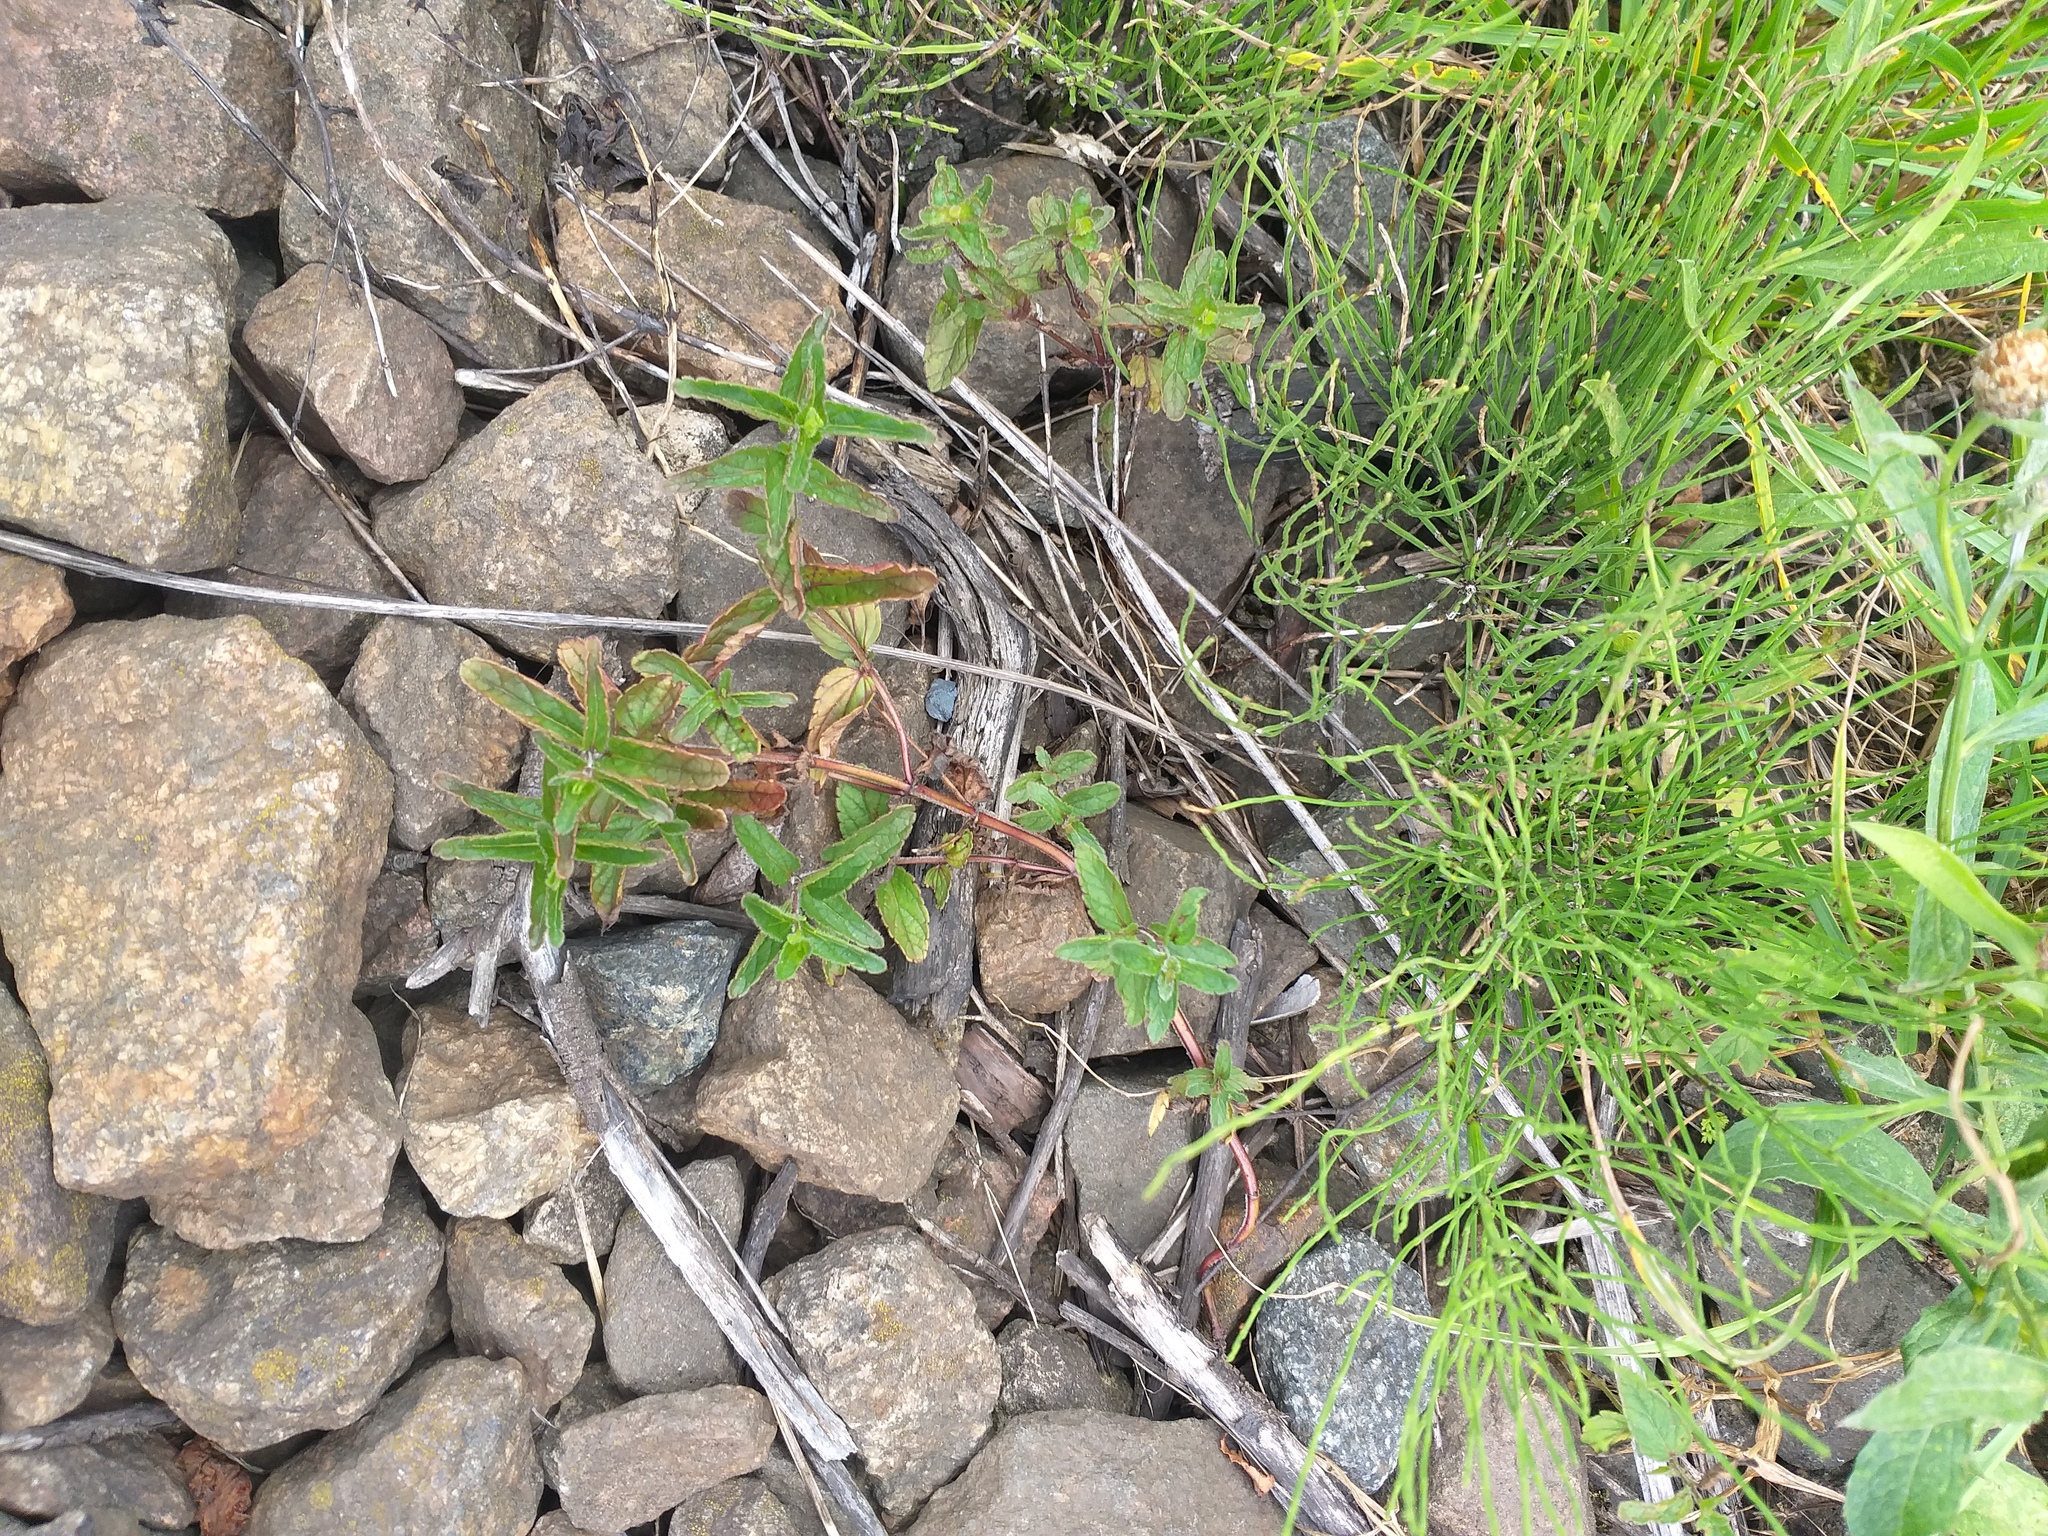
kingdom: Plantae
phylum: Tracheophyta
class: Magnoliopsida
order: Lamiales
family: Plantaginaceae
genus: Veronica
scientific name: Veronica chamaedrys
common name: Germander speedwell
